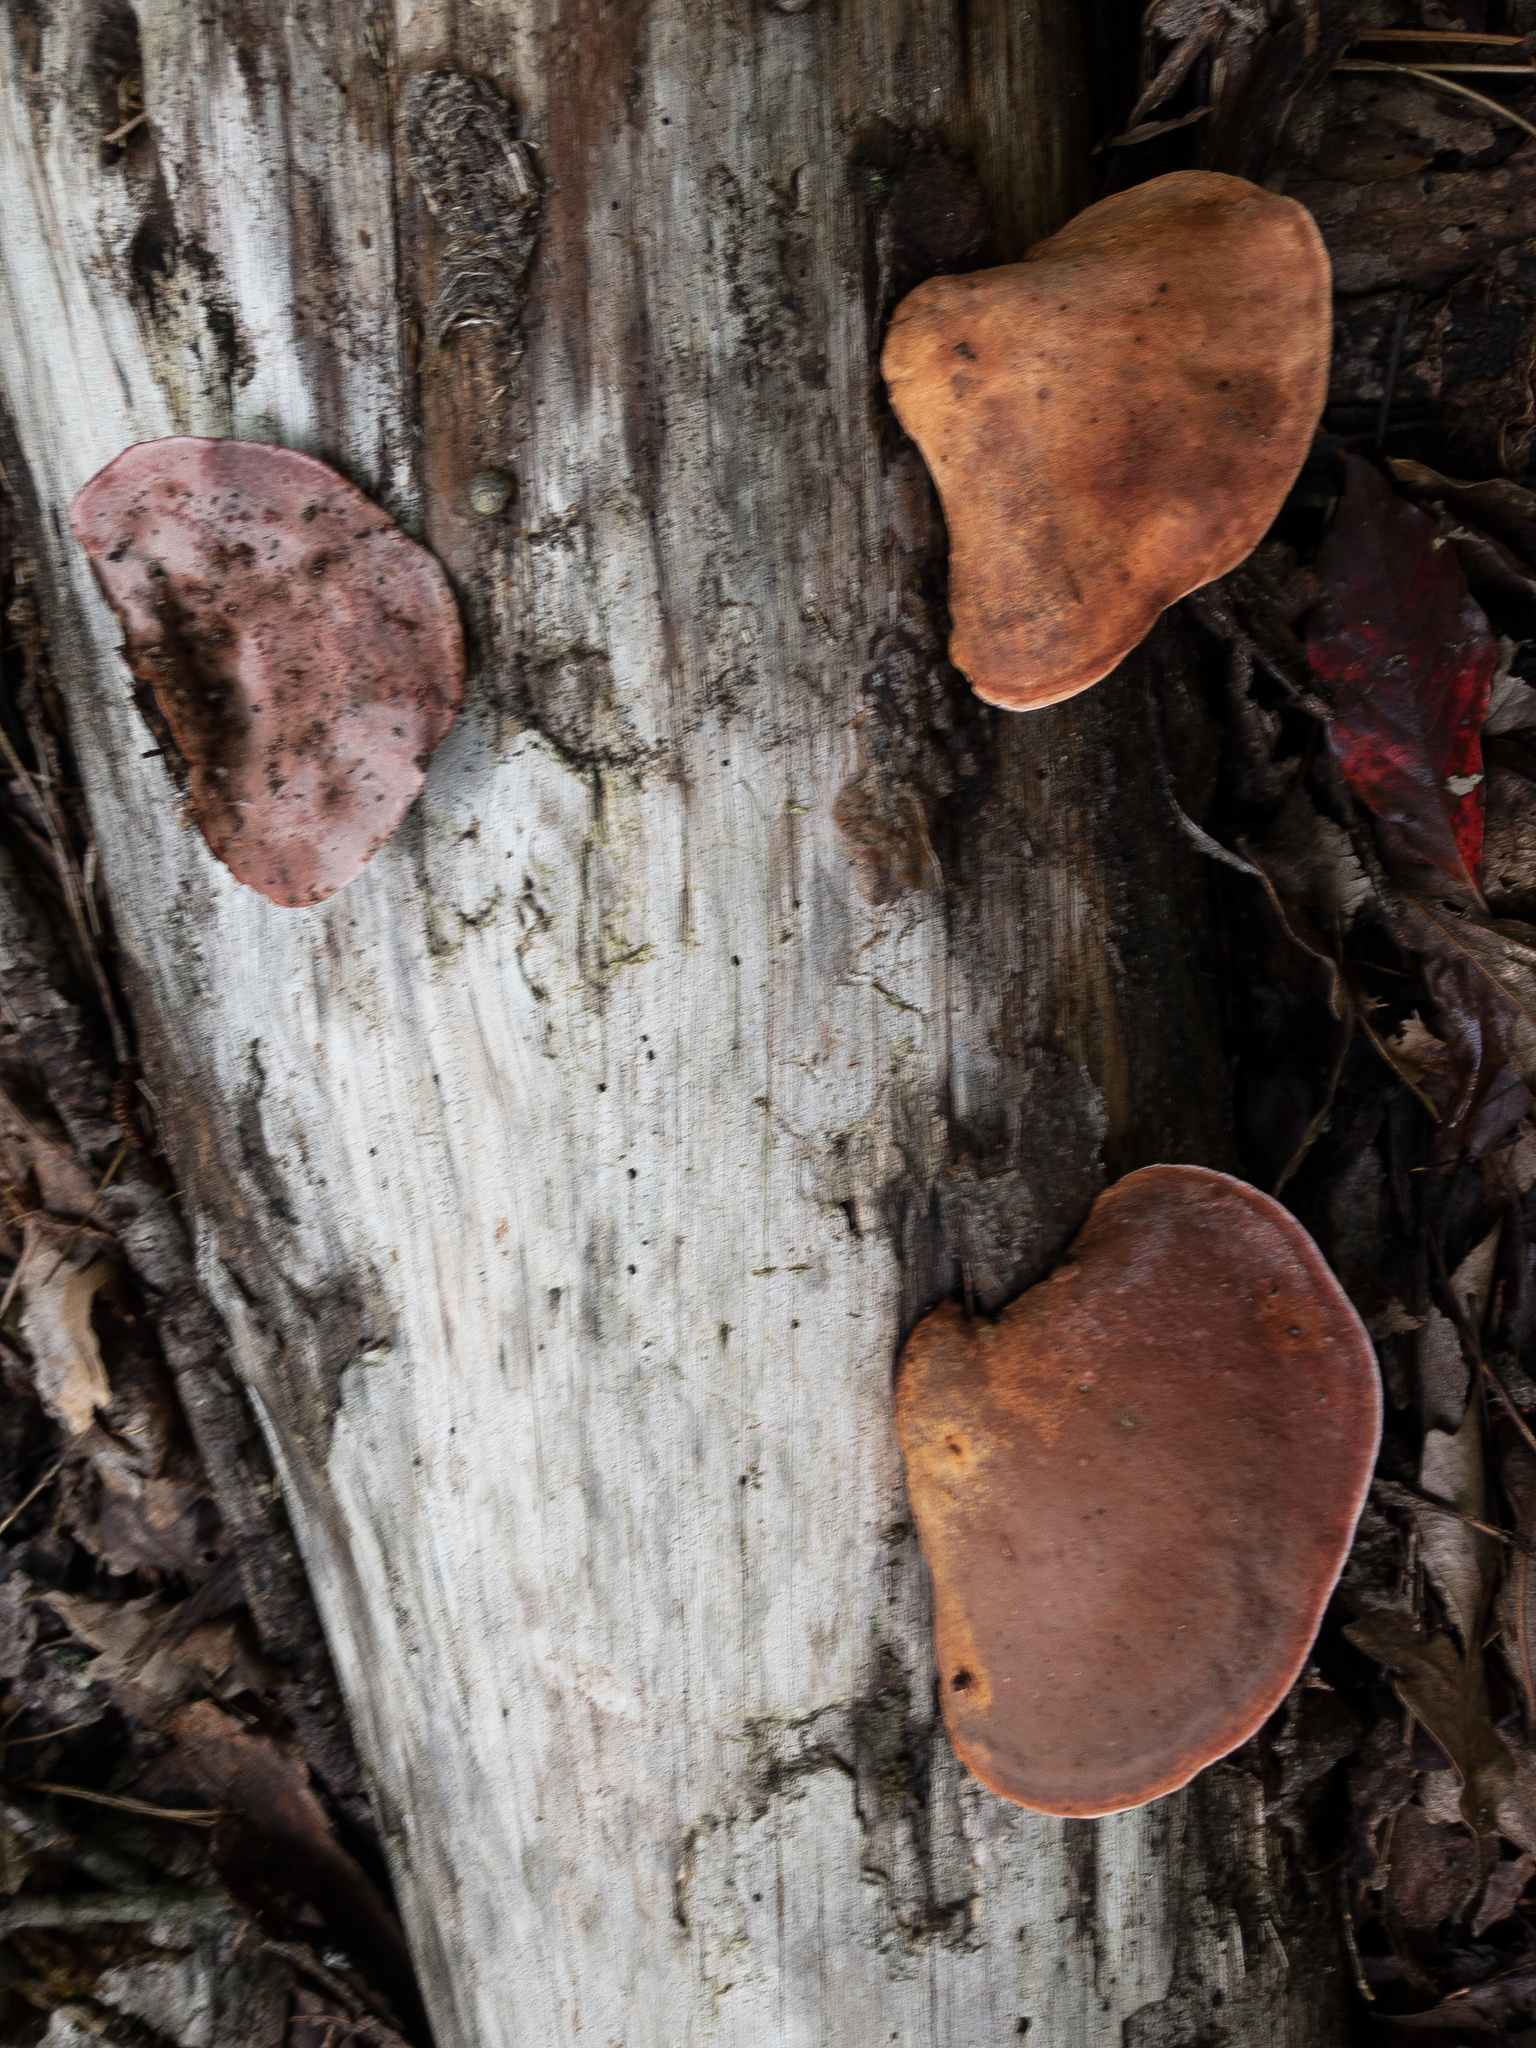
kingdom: Fungi
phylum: Basidiomycota
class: Agaricomycetes
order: Polyporales
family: Fomitopsidaceae
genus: Rhodofomes
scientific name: Rhodofomes cajanderi
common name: Rosy conk
